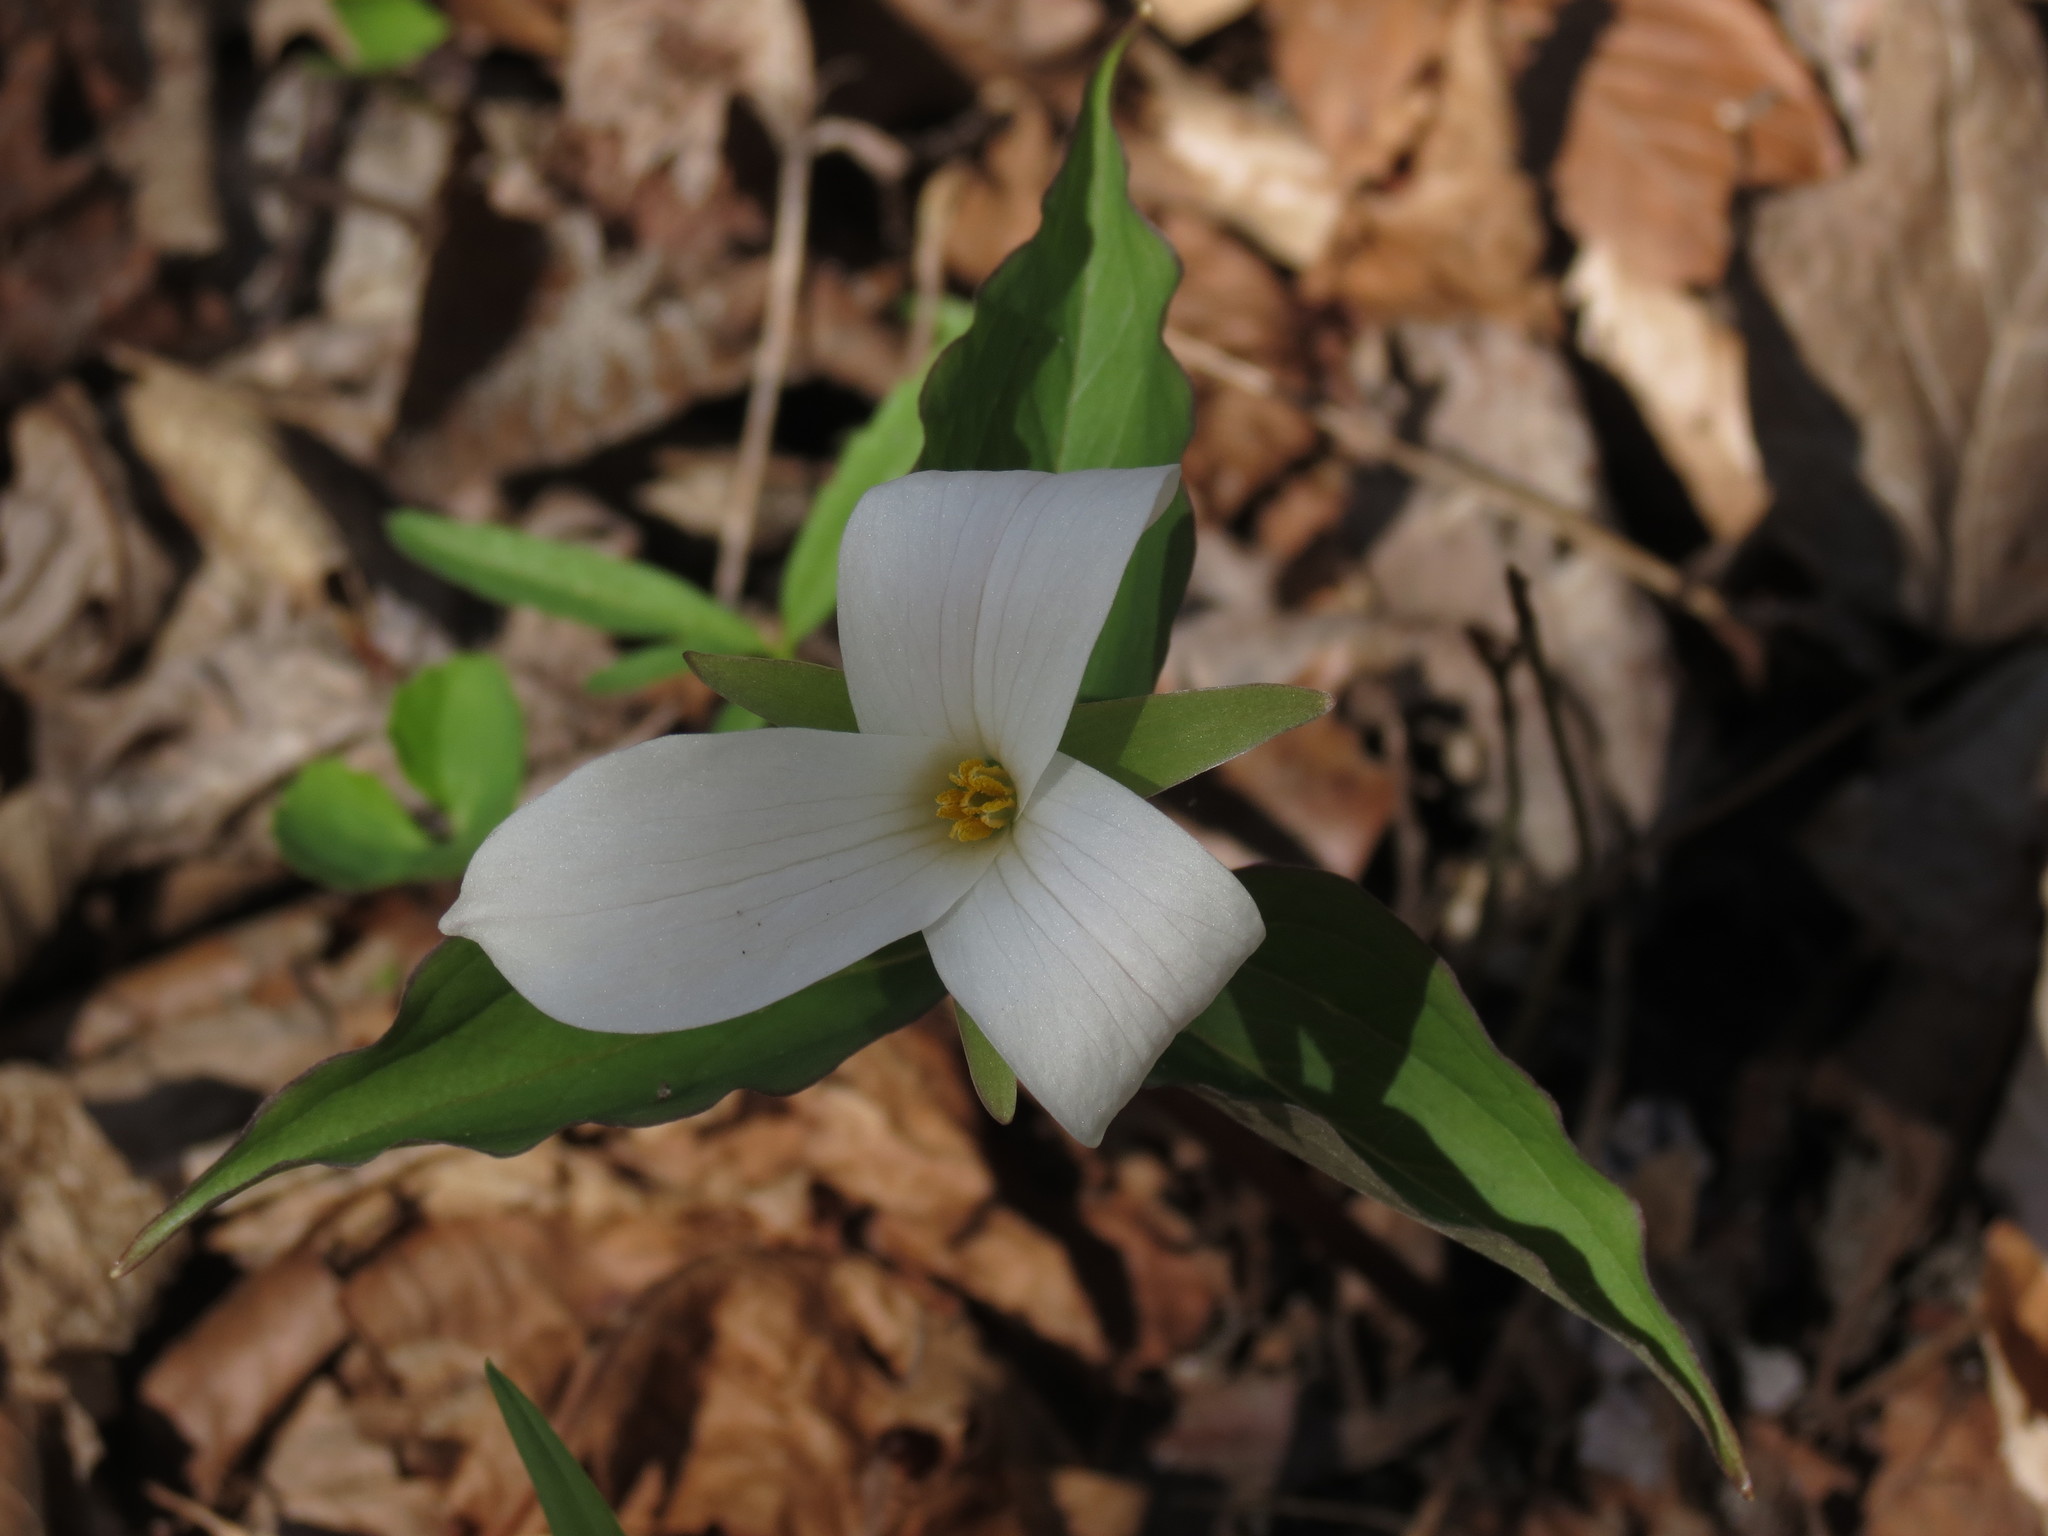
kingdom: Plantae
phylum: Tracheophyta
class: Liliopsida
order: Liliales
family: Melanthiaceae
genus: Trillium
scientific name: Trillium grandiflorum
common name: Great white trillium
